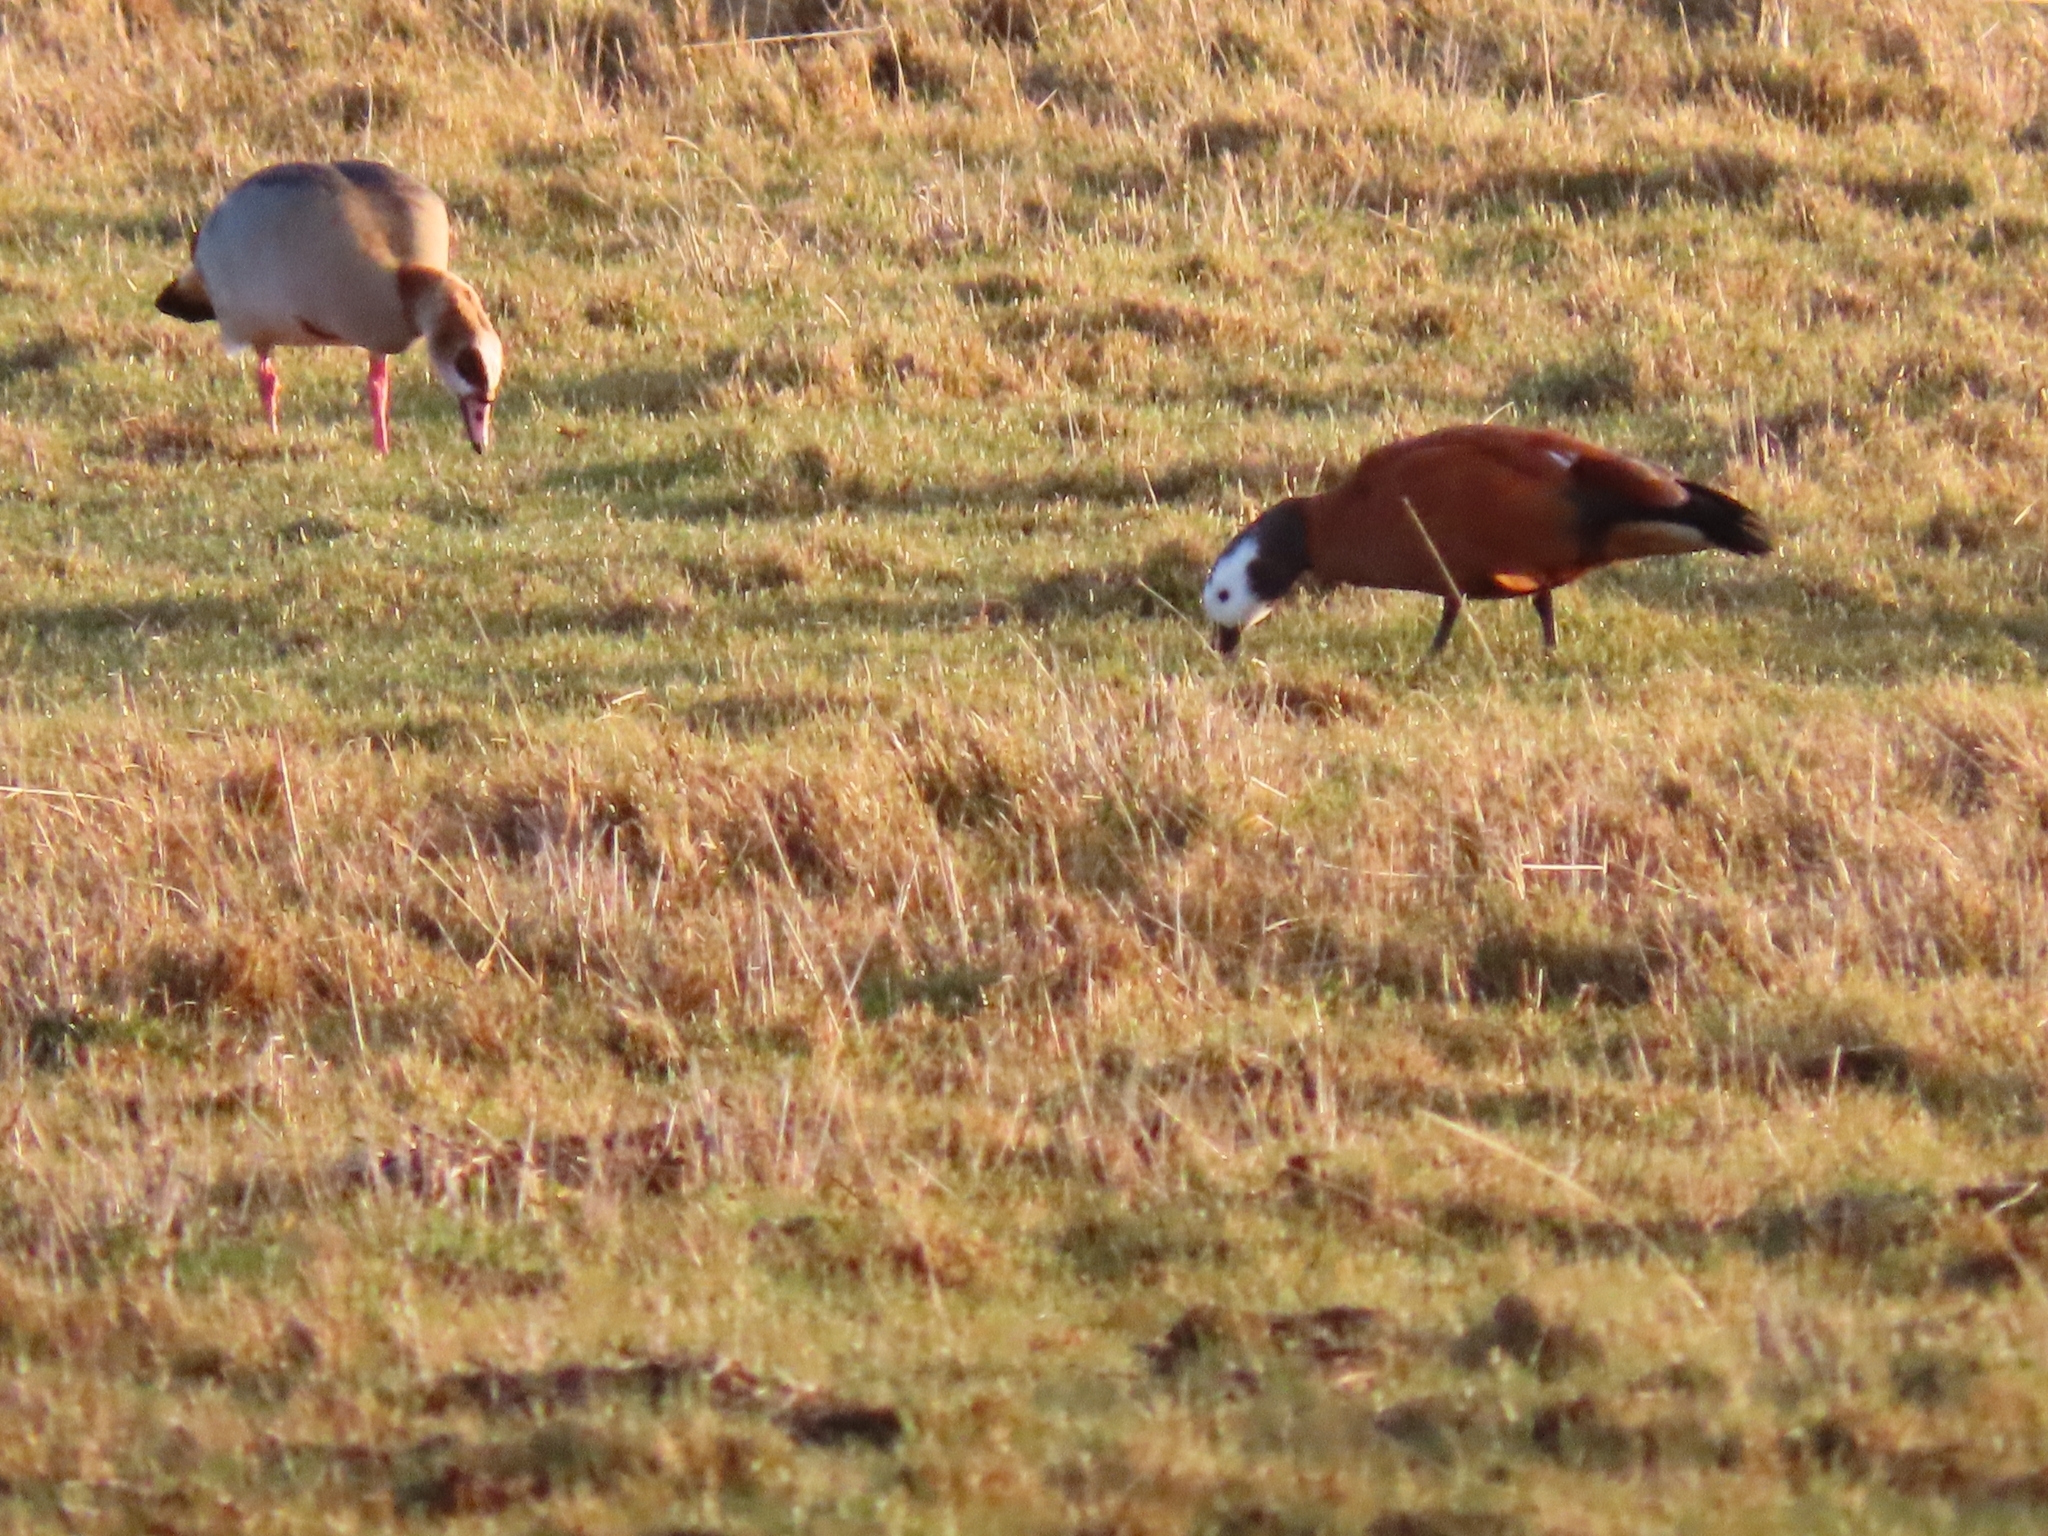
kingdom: Animalia
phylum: Chordata
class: Aves
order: Anseriformes
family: Anatidae
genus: Tadorna
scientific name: Tadorna cana
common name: South african shelduck
